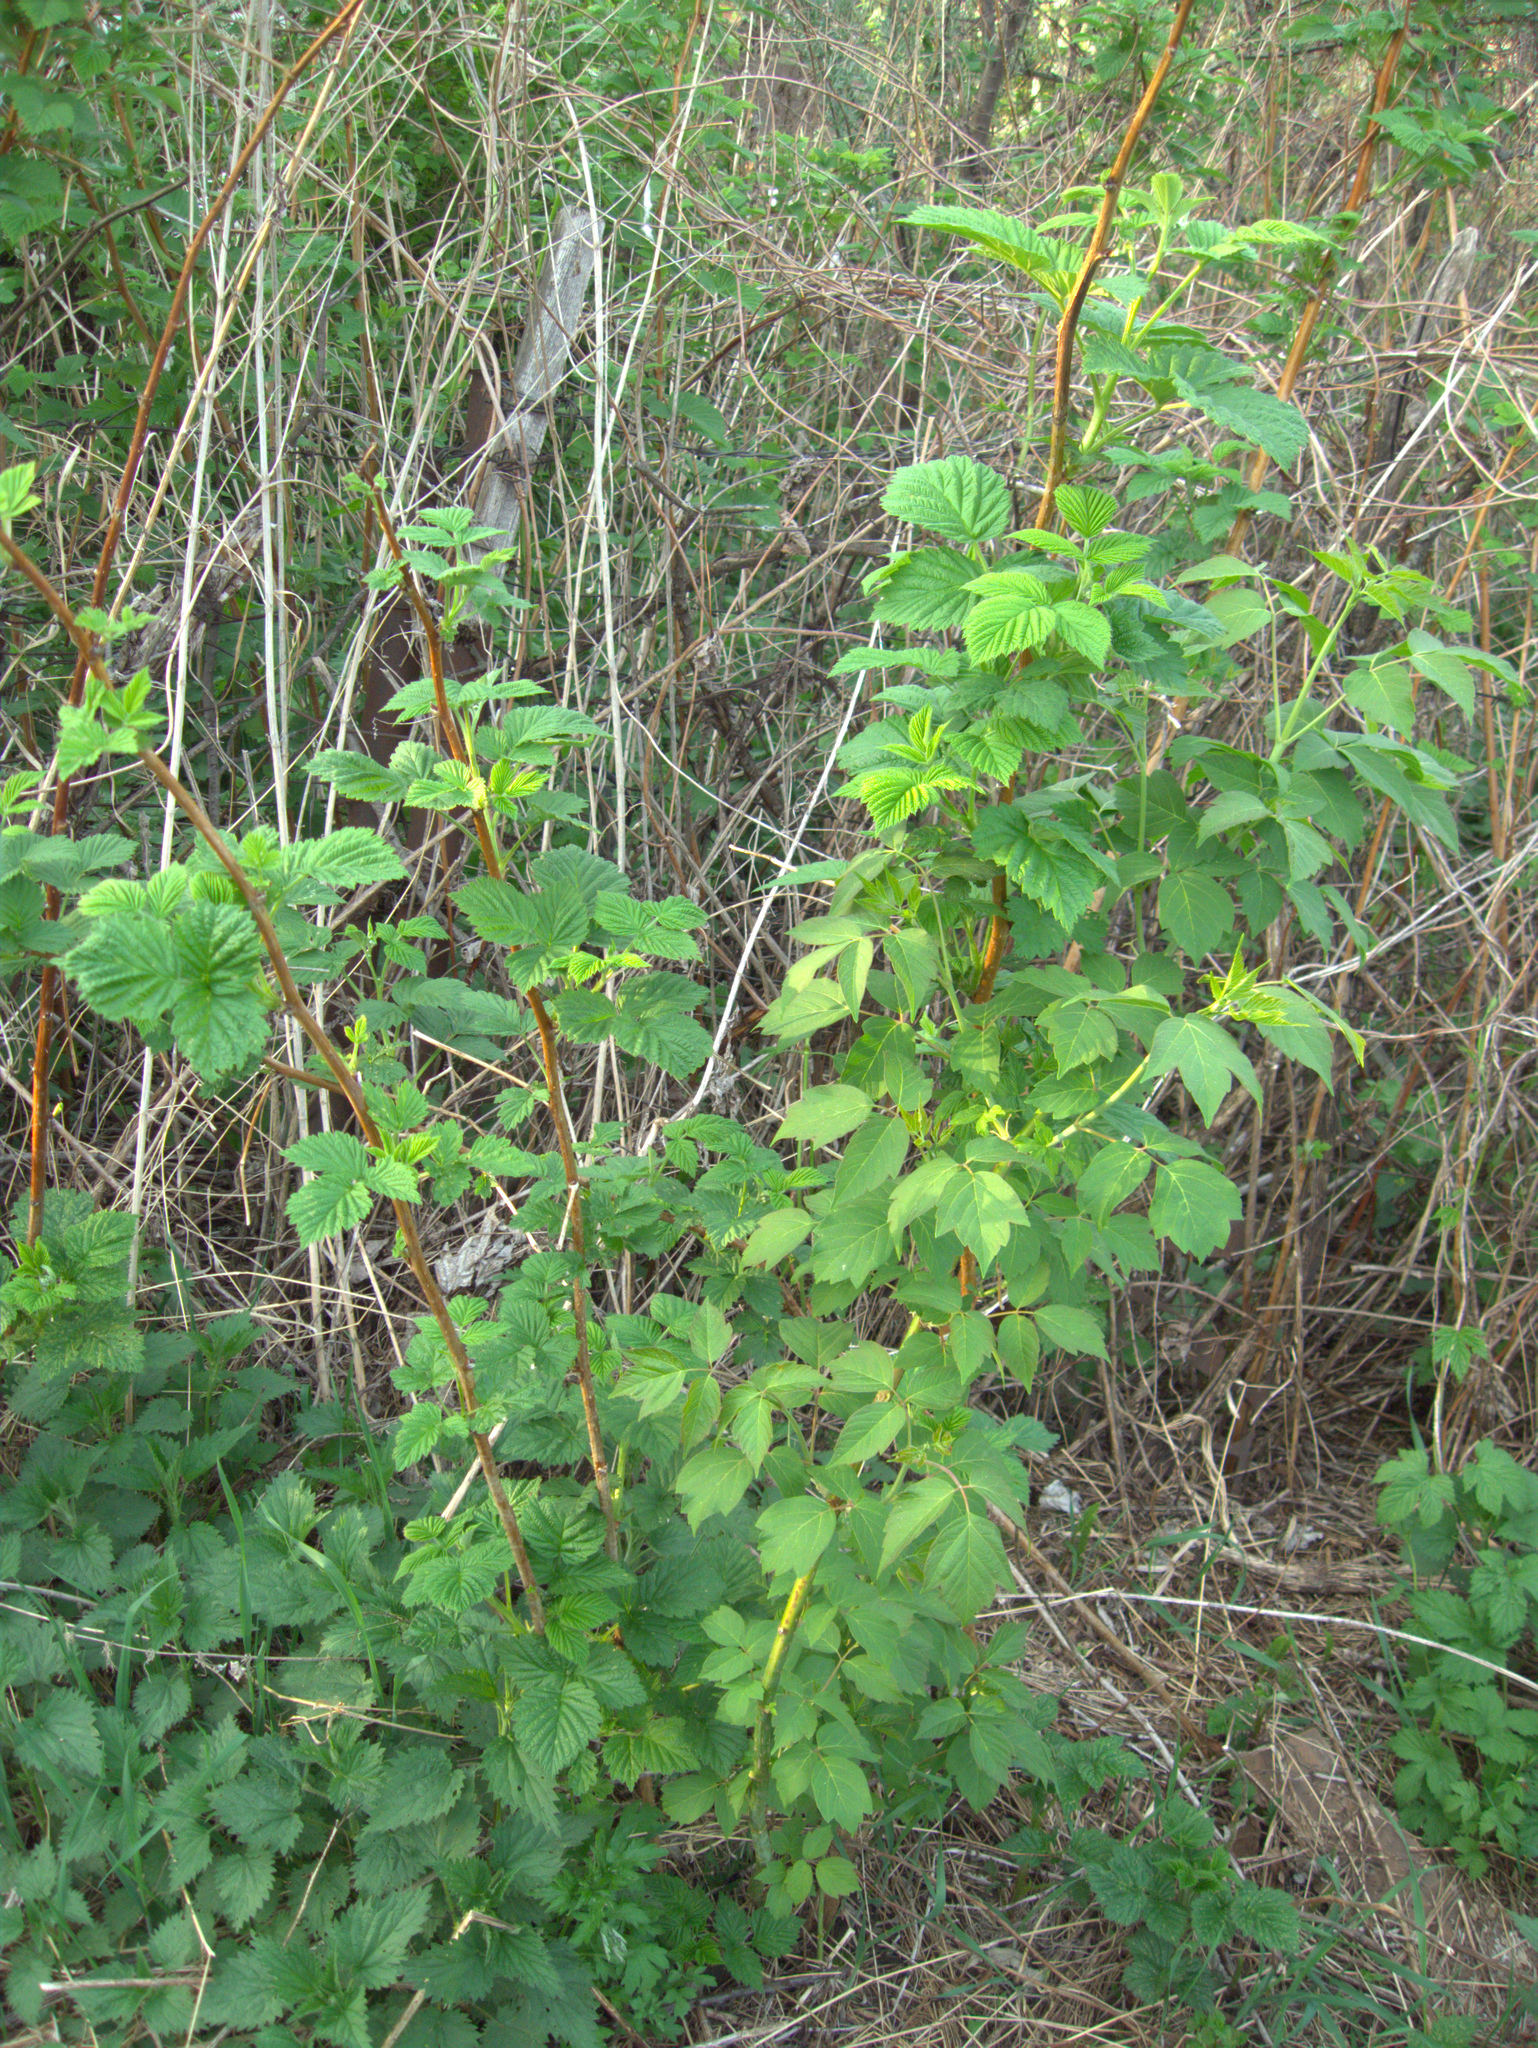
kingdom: Plantae
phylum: Tracheophyta
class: Magnoliopsida
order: Rosales
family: Rosaceae
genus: Rubus
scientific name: Rubus idaeus
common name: Raspberry
